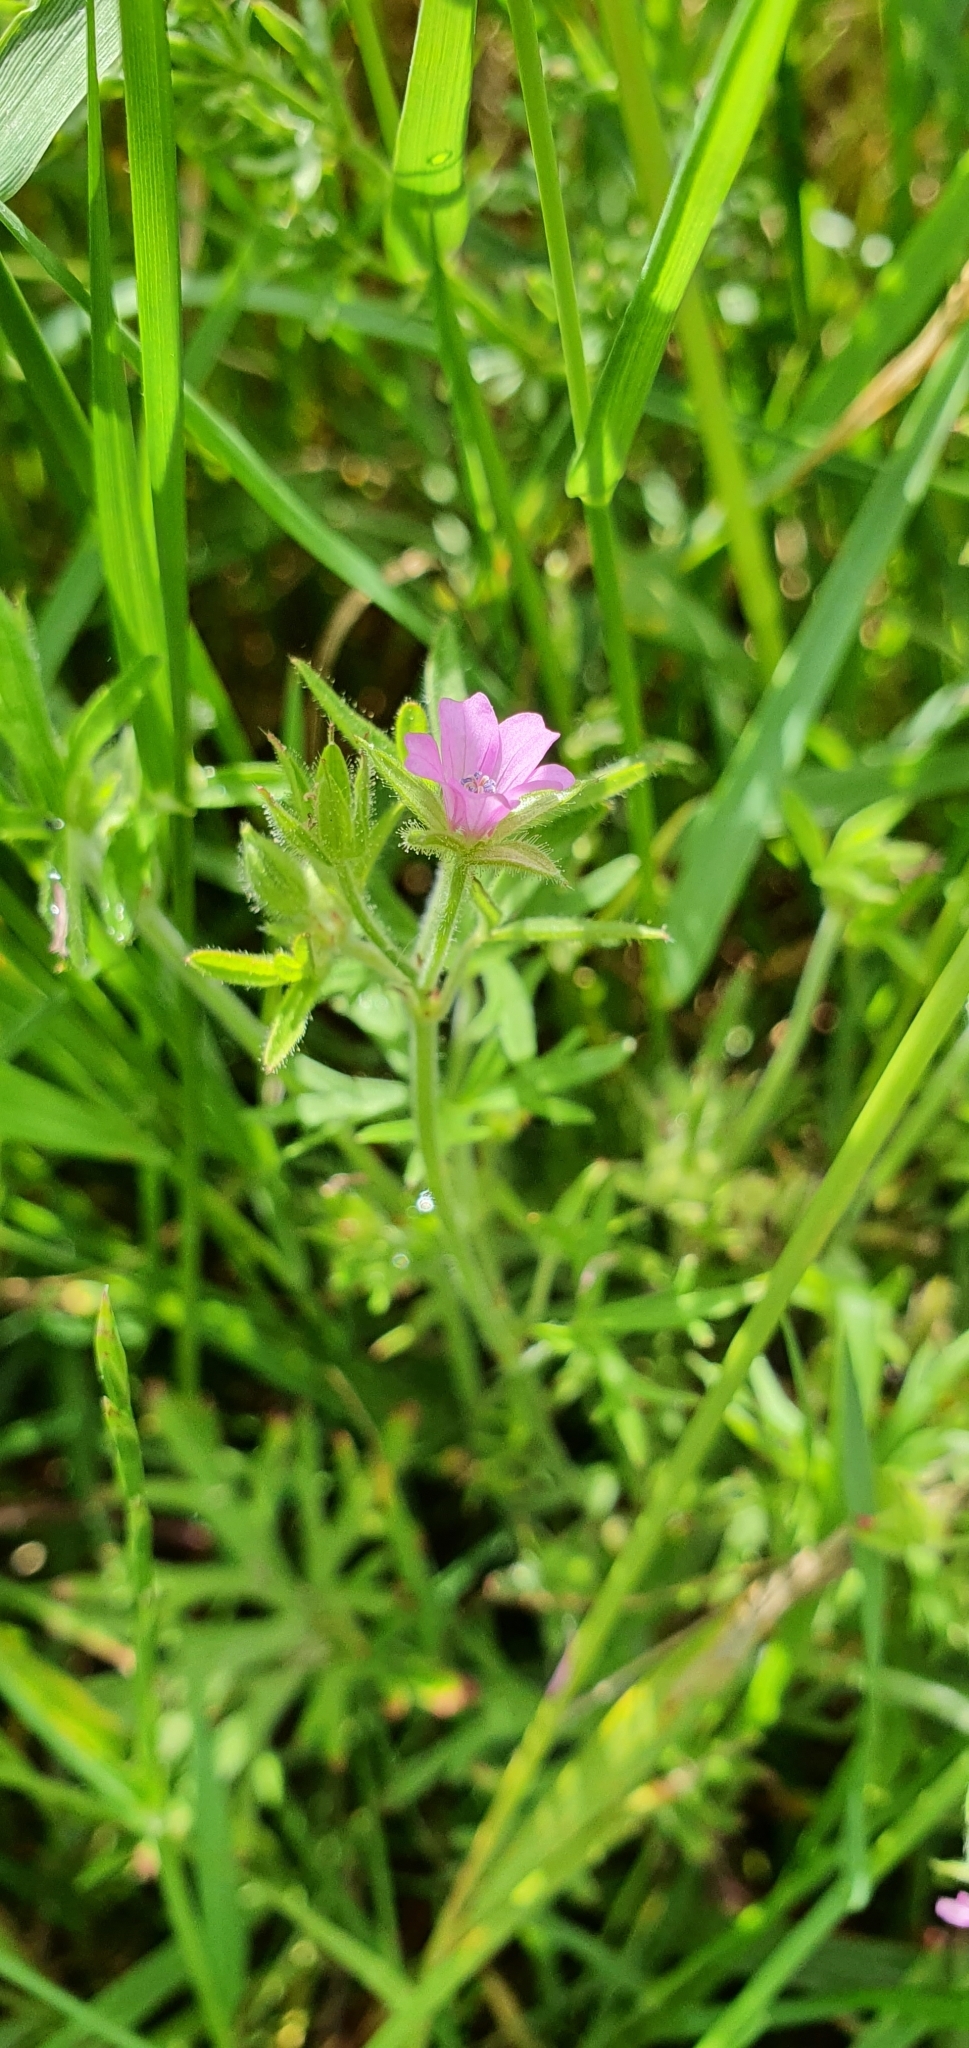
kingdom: Plantae
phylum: Tracheophyta
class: Magnoliopsida
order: Geraniales
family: Geraniaceae
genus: Geranium
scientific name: Geranium dissectum
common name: Cut-leaved crane's-bill
